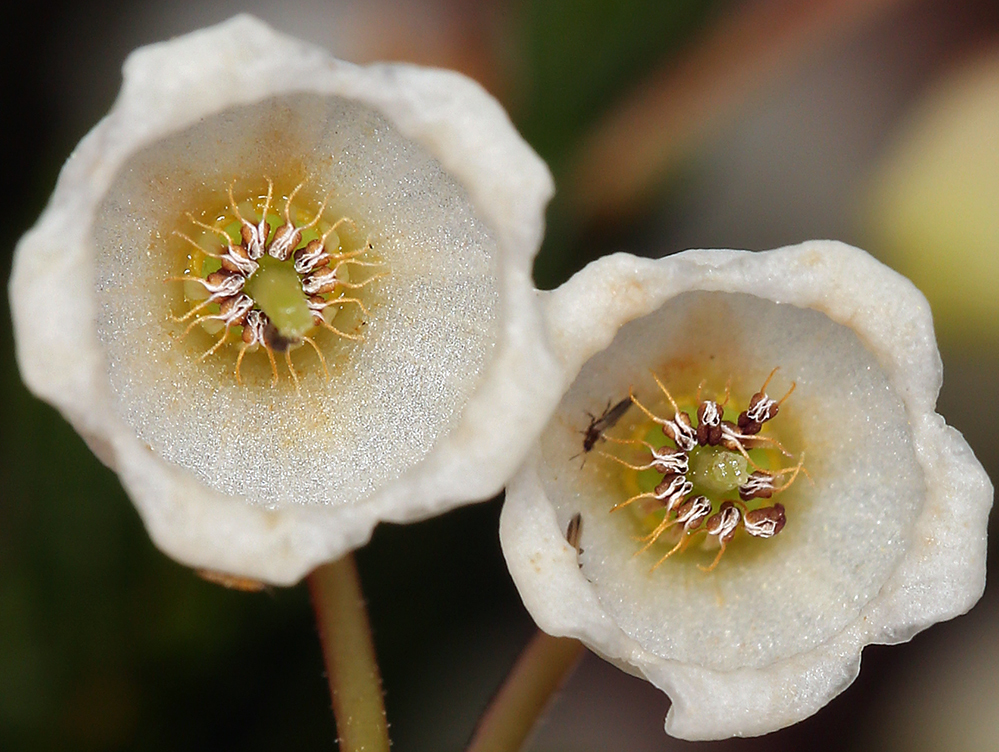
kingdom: Plantae
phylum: Tracheophyta
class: Magnoliopsida
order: Ericales
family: Ericaceae
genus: Cassiope
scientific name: Cassiope mertensiana
